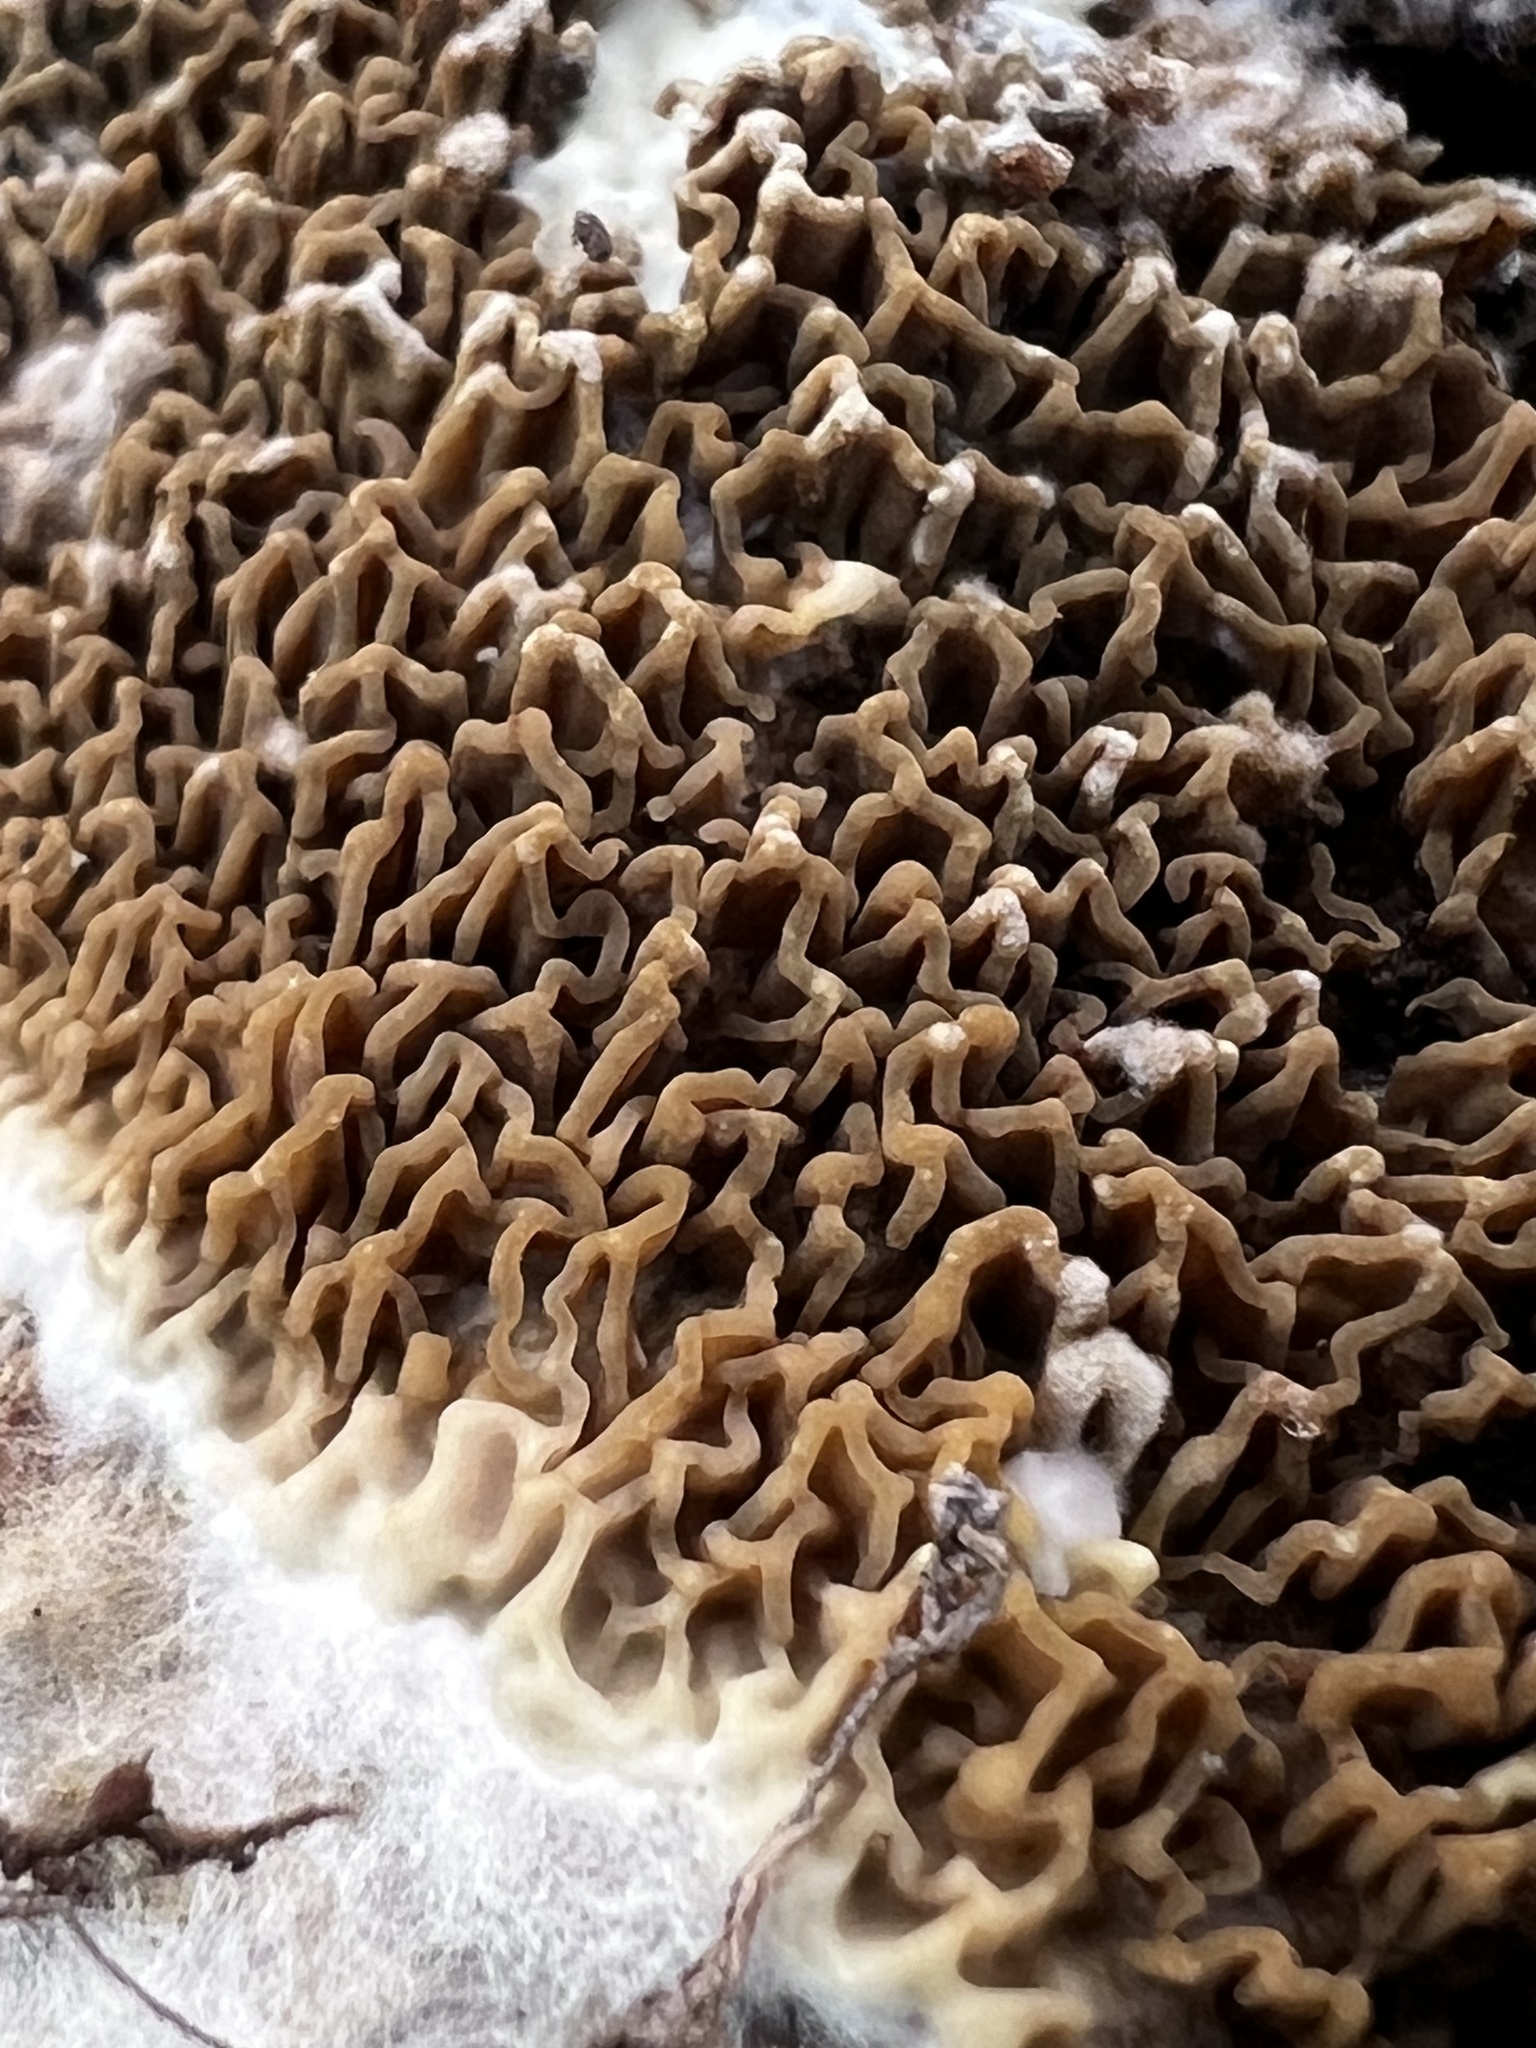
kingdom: Fungi
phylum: Basidiomycota
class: Agaricomycetes
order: Boletales
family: Serpulaceae
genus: Serpula
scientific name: Serpula himantioides
